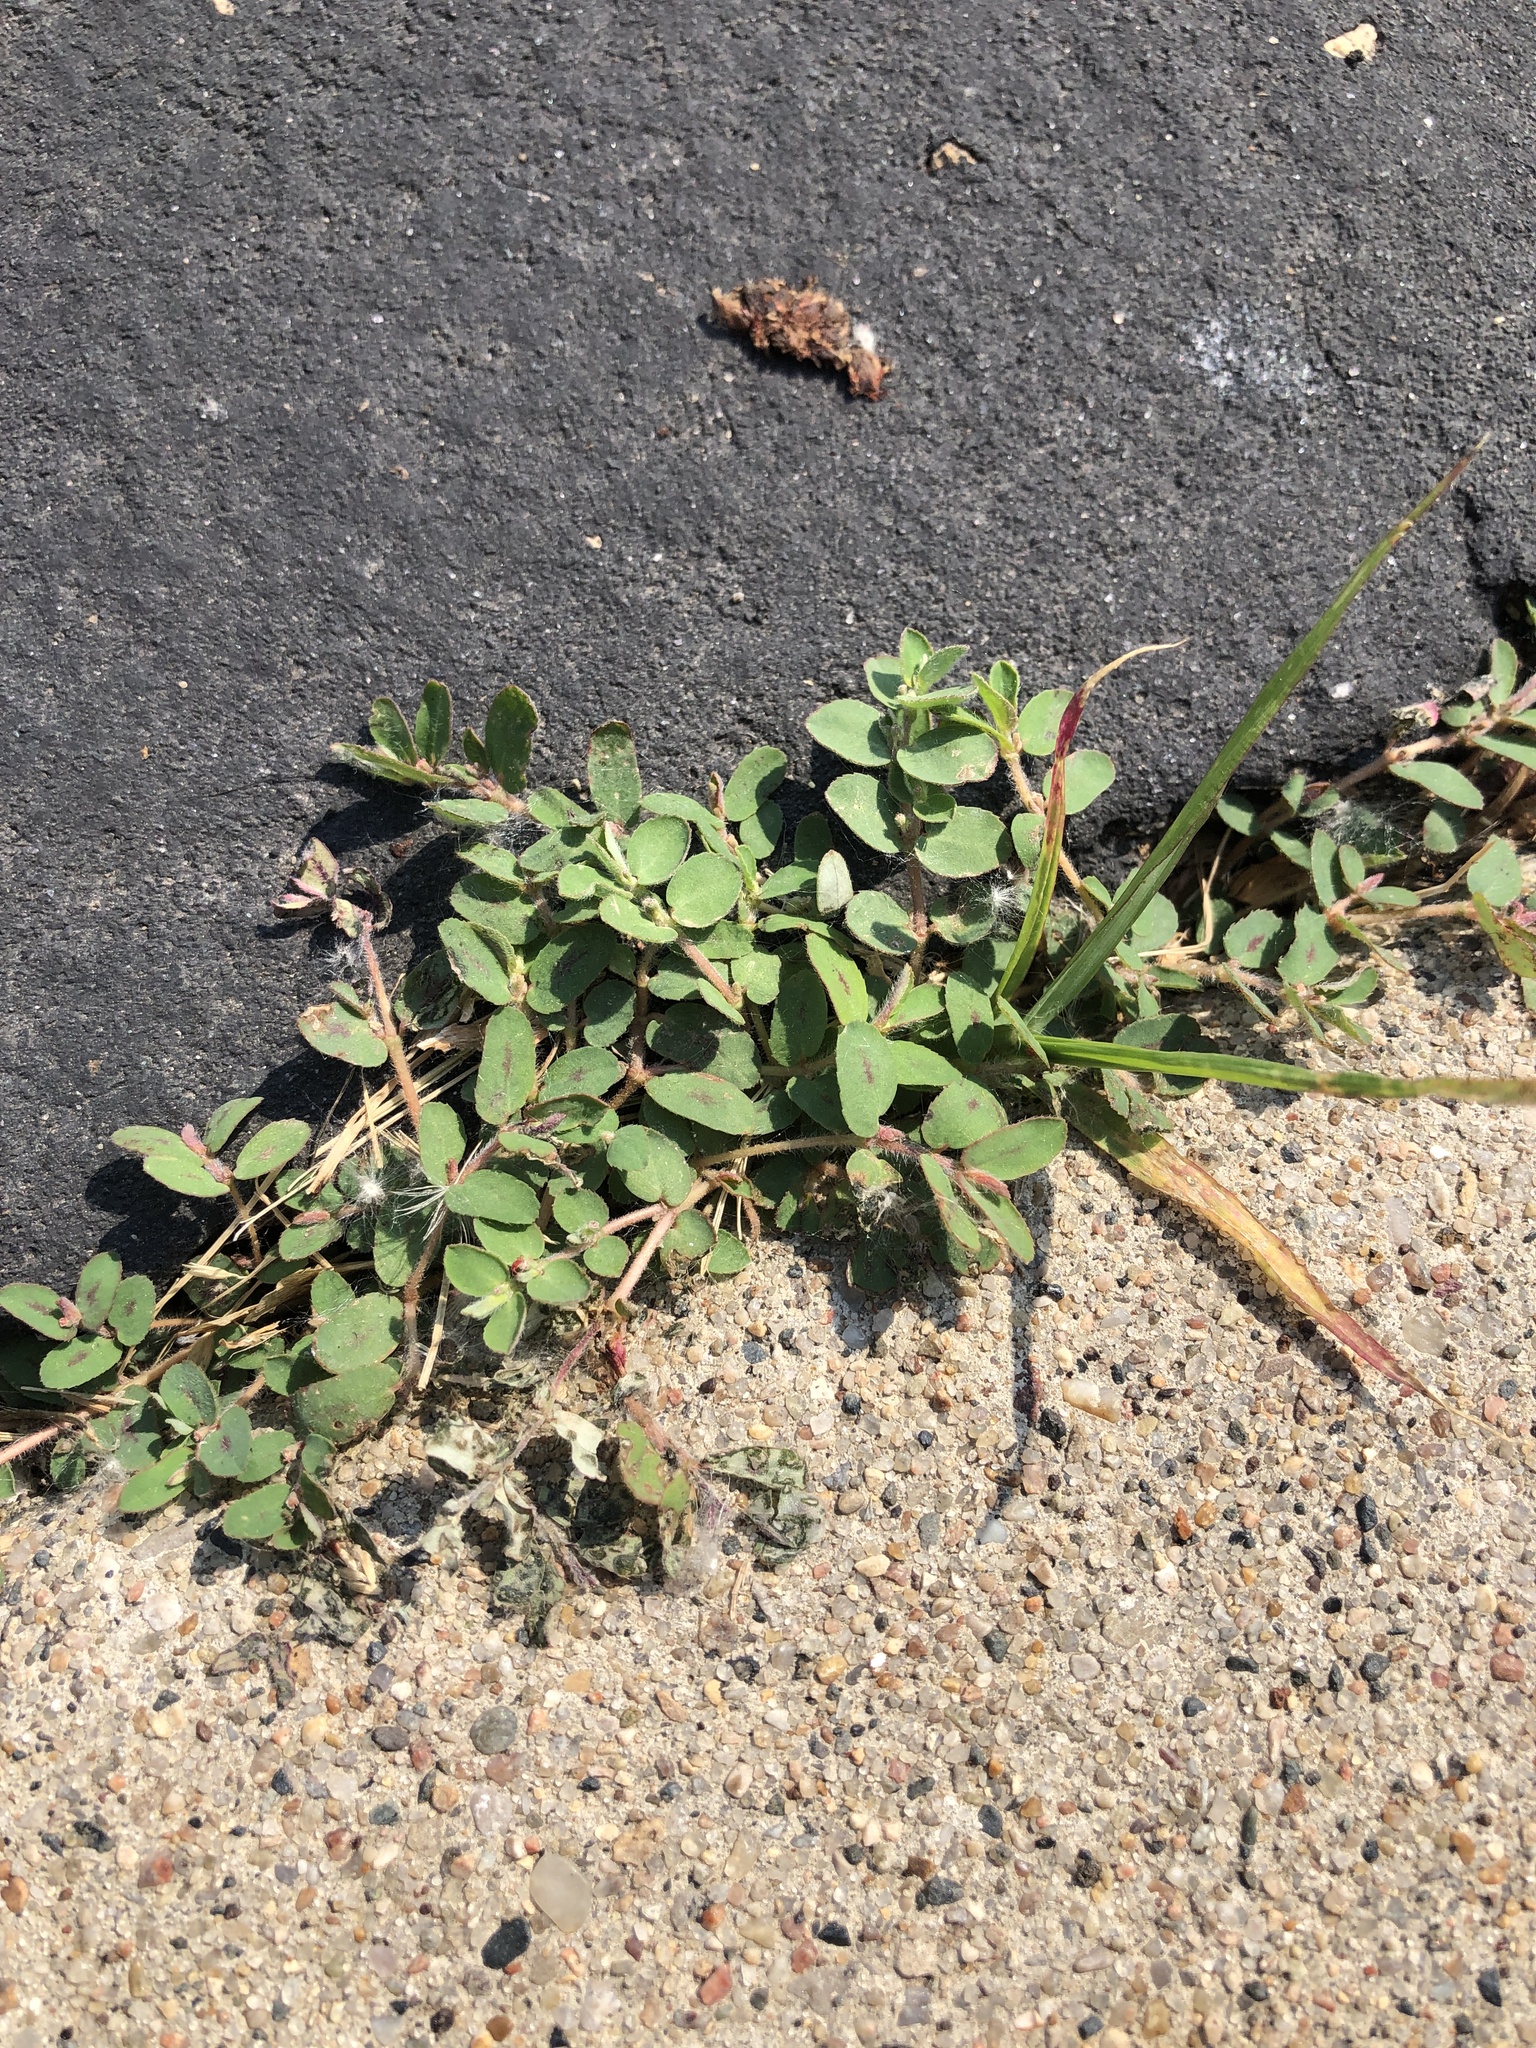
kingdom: Plantae
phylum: Tracheophyta
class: Magnoliopsida
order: Malpighiales
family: Euphorbiaceae
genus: Euphorbia
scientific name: Euphorbia maculata
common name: Spotted spurge
